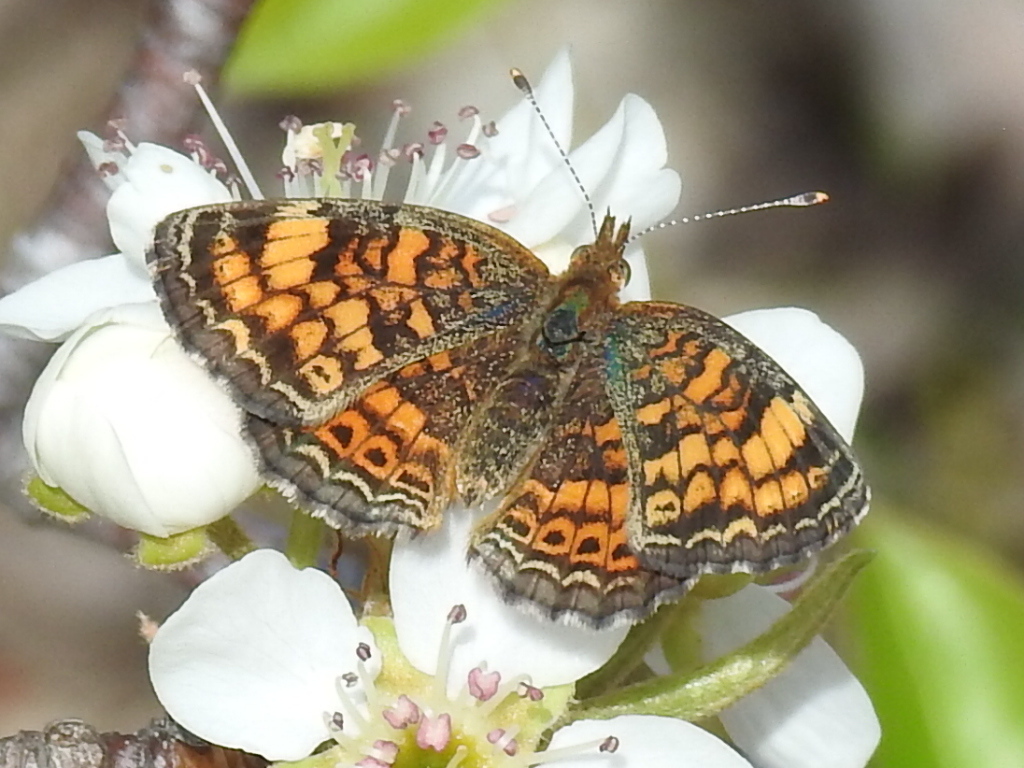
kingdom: Animalia
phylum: Arthropoda
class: Insecta
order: Lepidoptera
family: Nymphalidae
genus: Phyciodes
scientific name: Phyciodes tharos
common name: Pearl crescent
